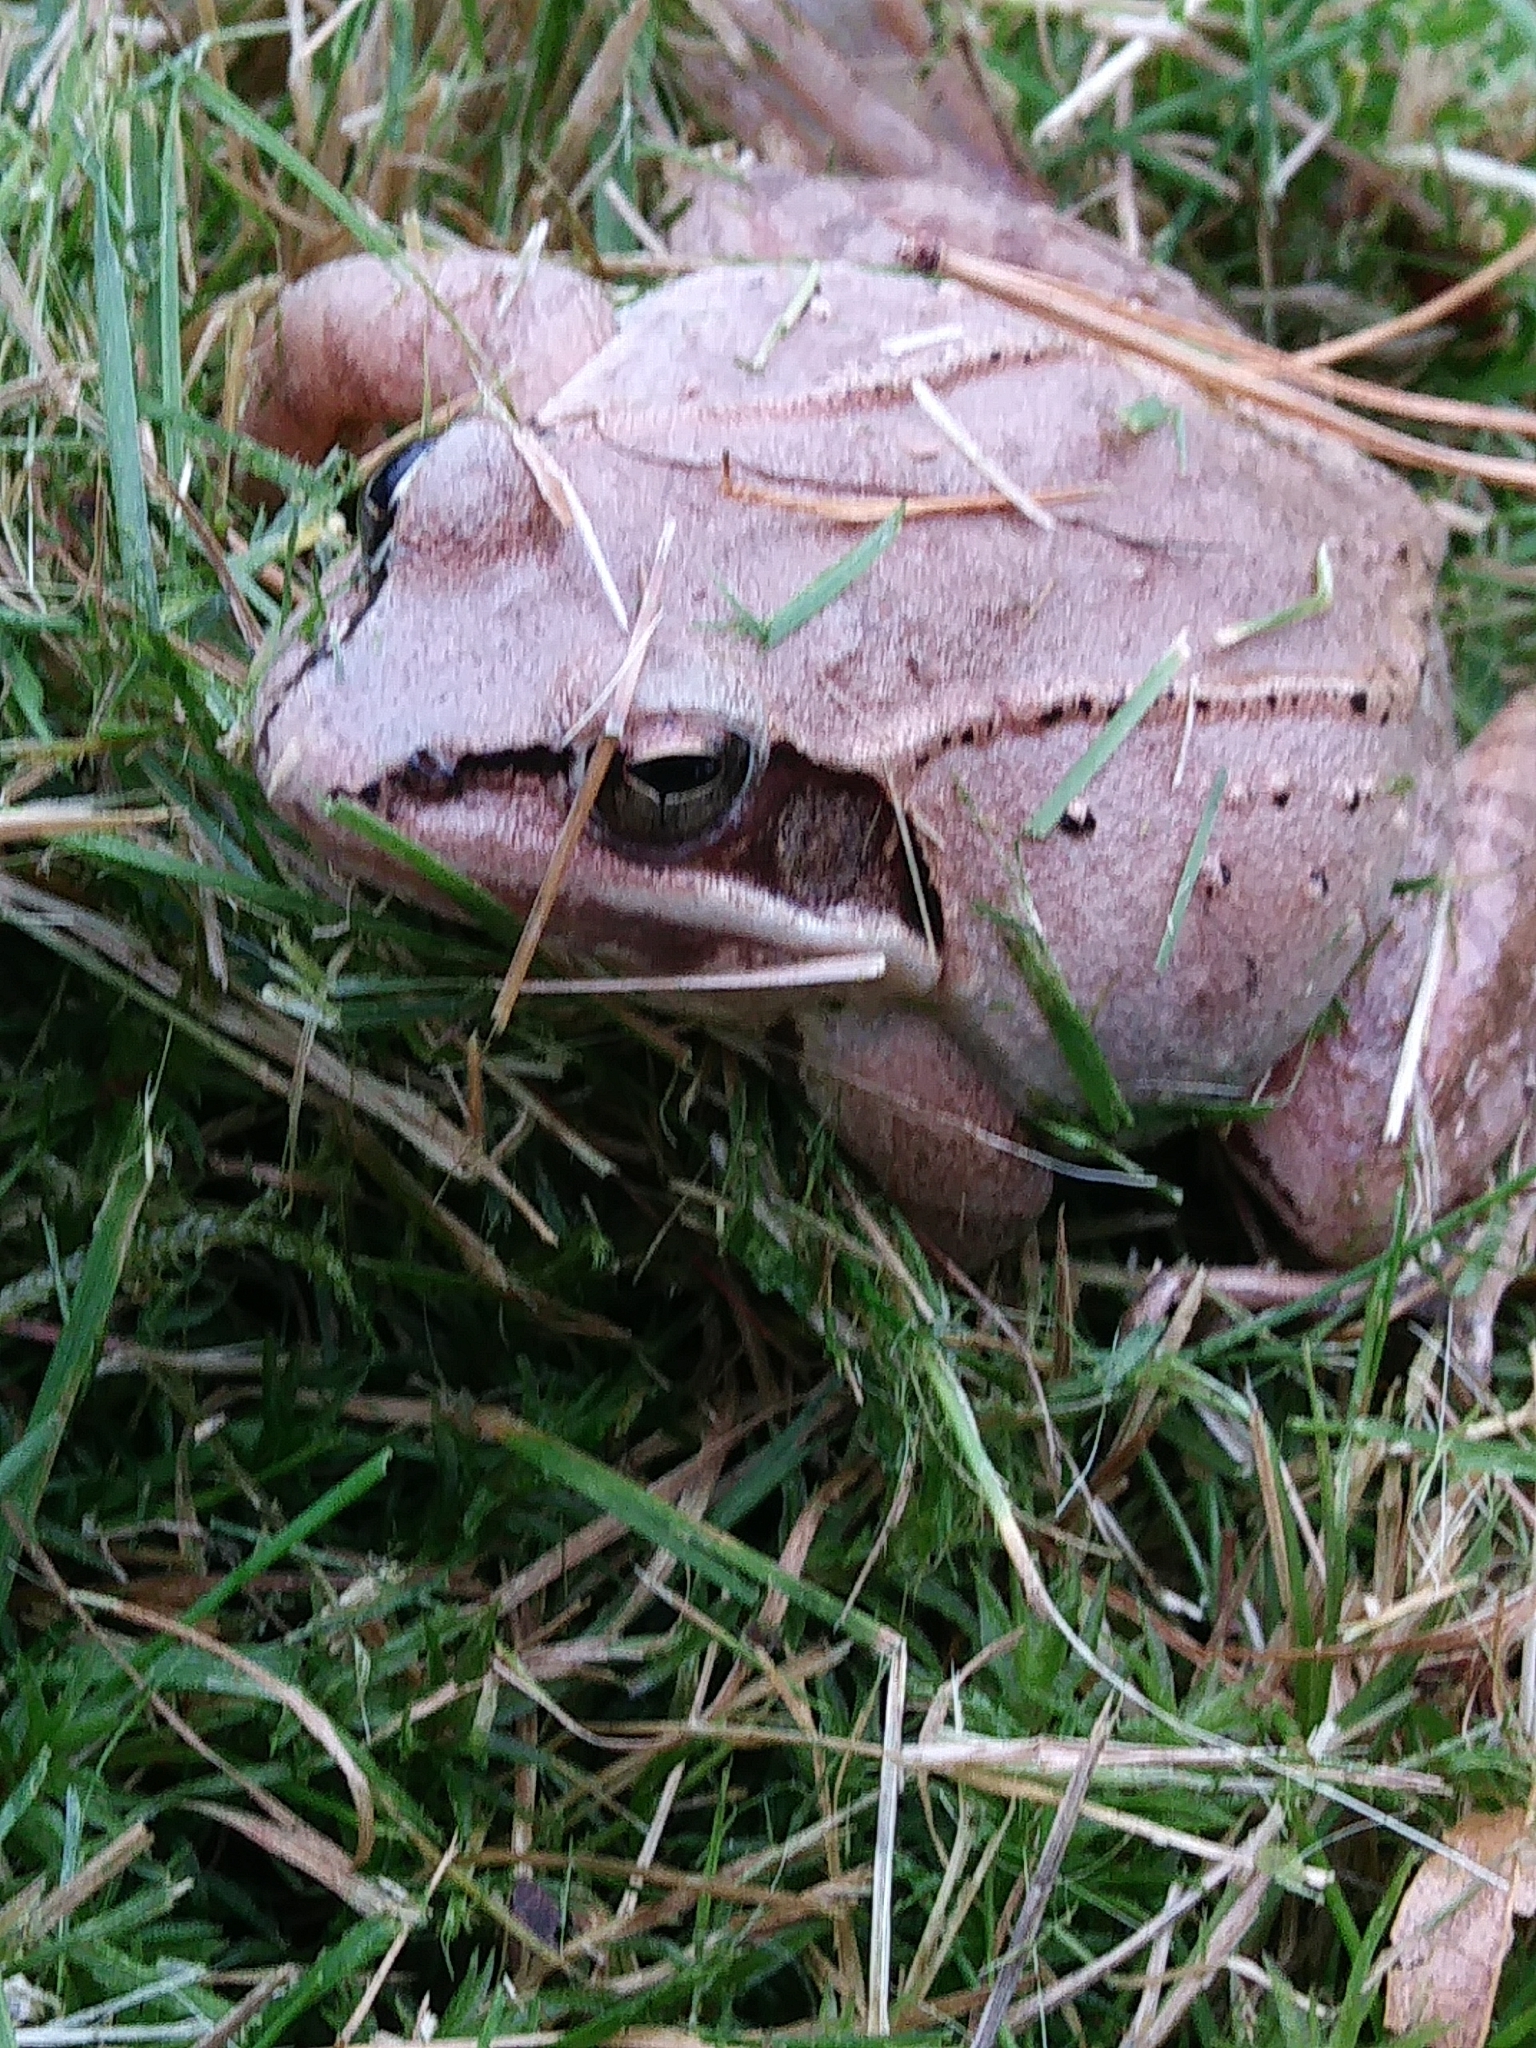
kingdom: Animalia
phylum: Chordata
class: Amphibia
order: Anura
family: Ranidae
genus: Lithobates
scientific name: Lithobates sylvaticus
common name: Wood frog
